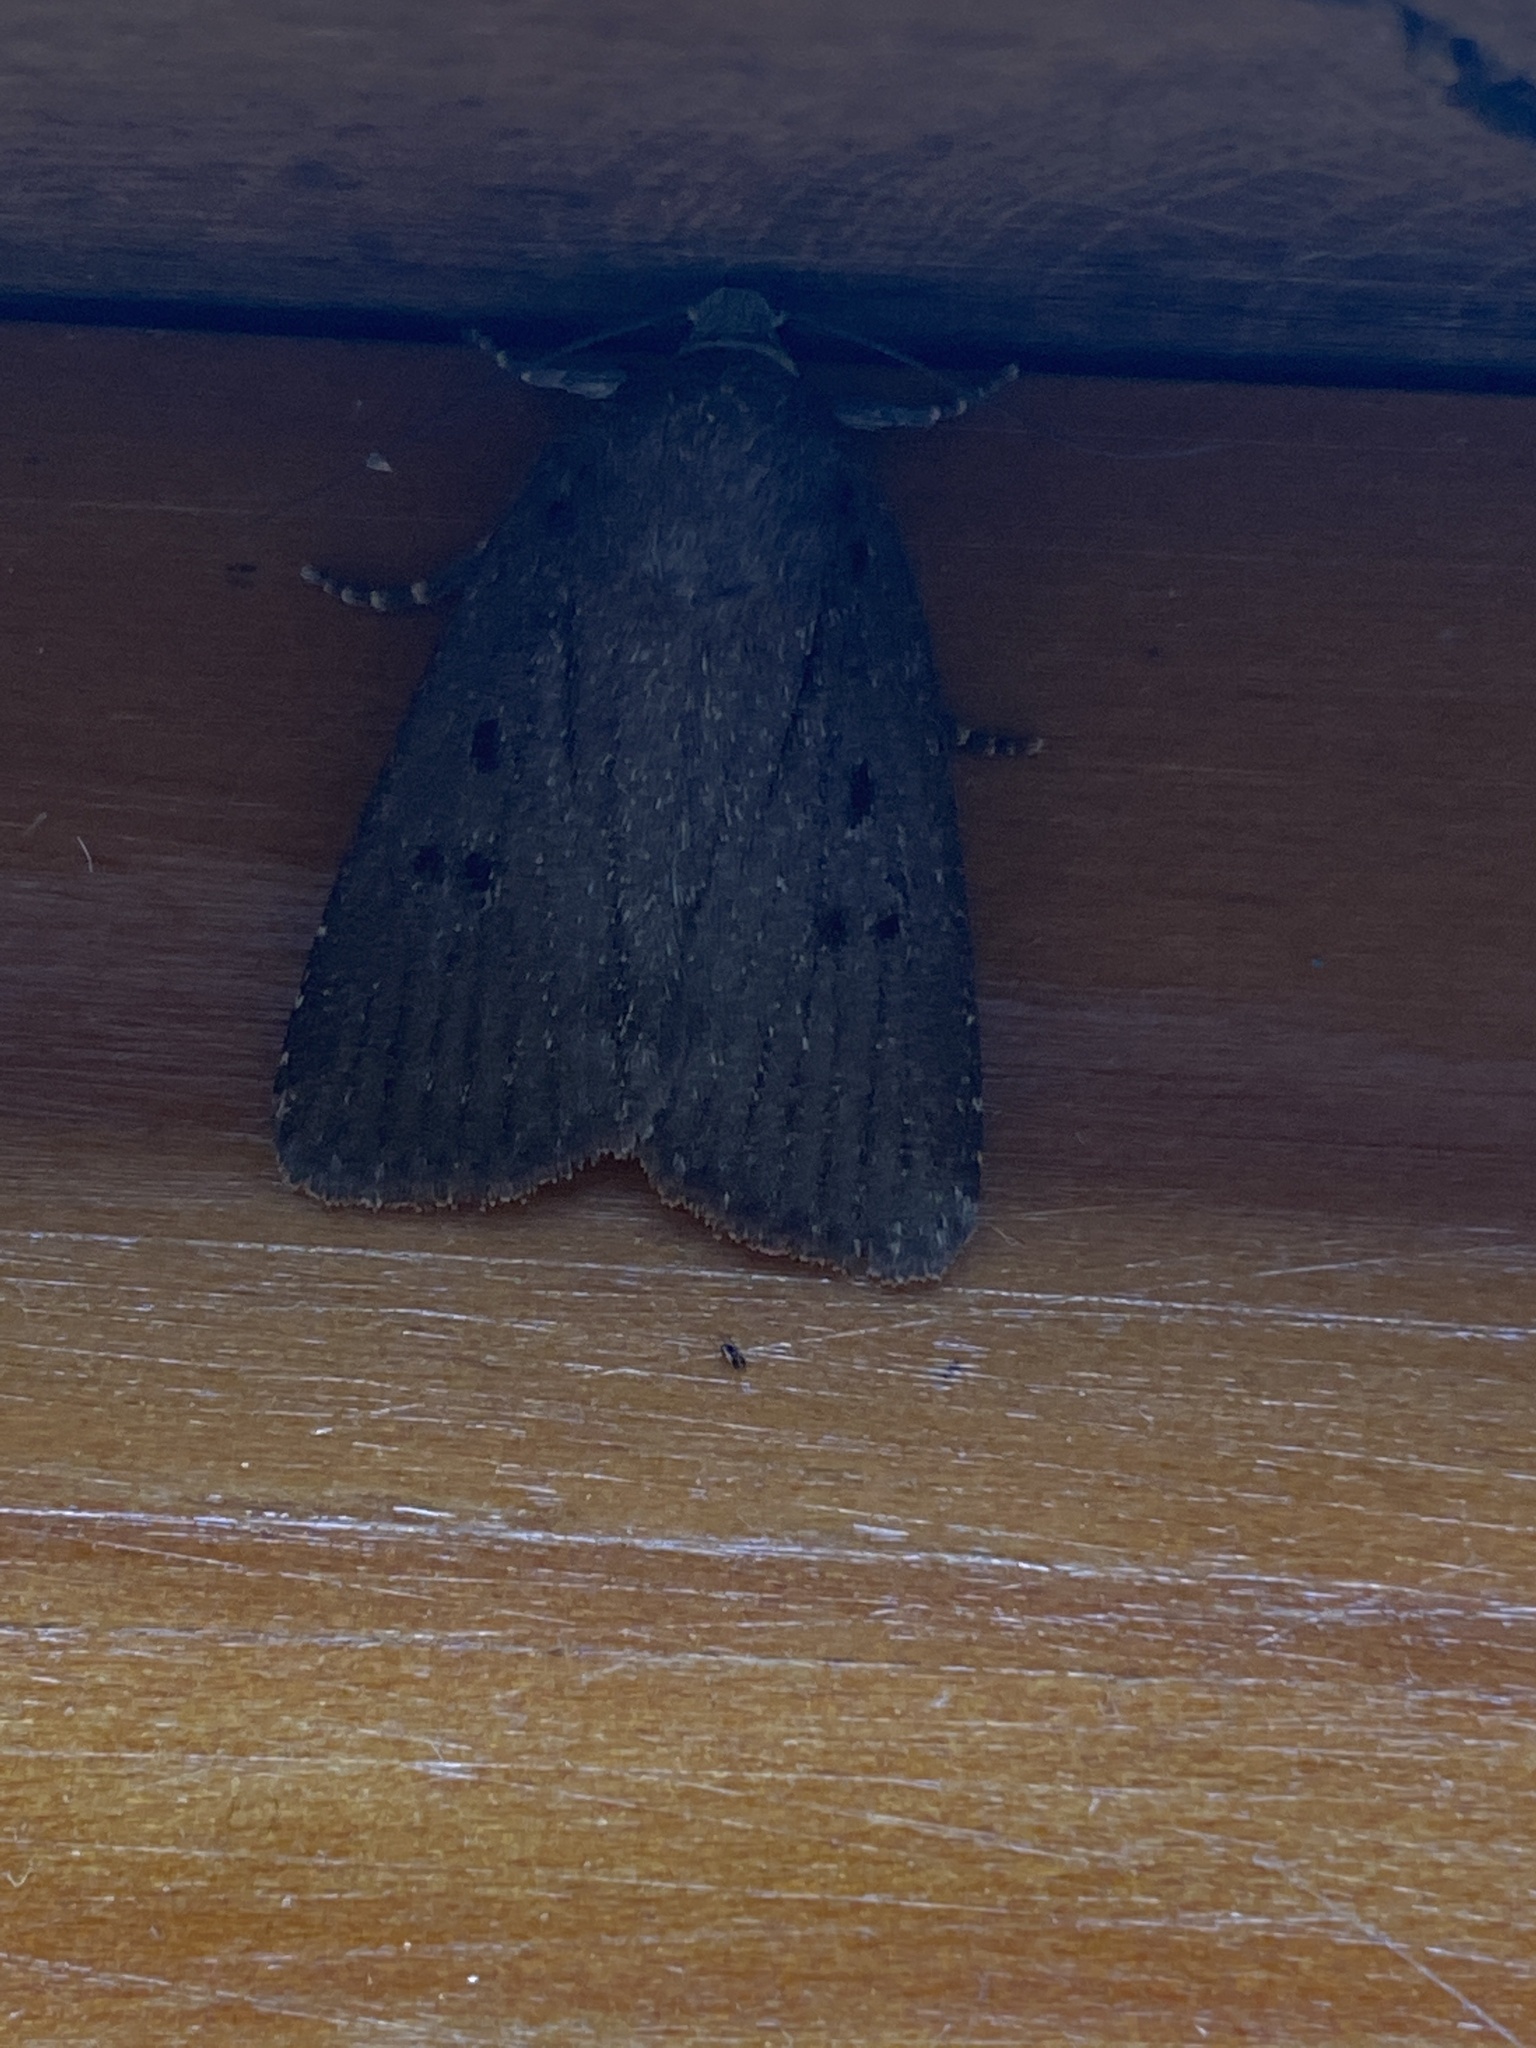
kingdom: Animalia
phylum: Arthropoda
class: Insecta
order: Lepidoptera
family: Noctuidae
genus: Amphipyra
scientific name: Amphipyra tragopoginis
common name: Mouse moth
